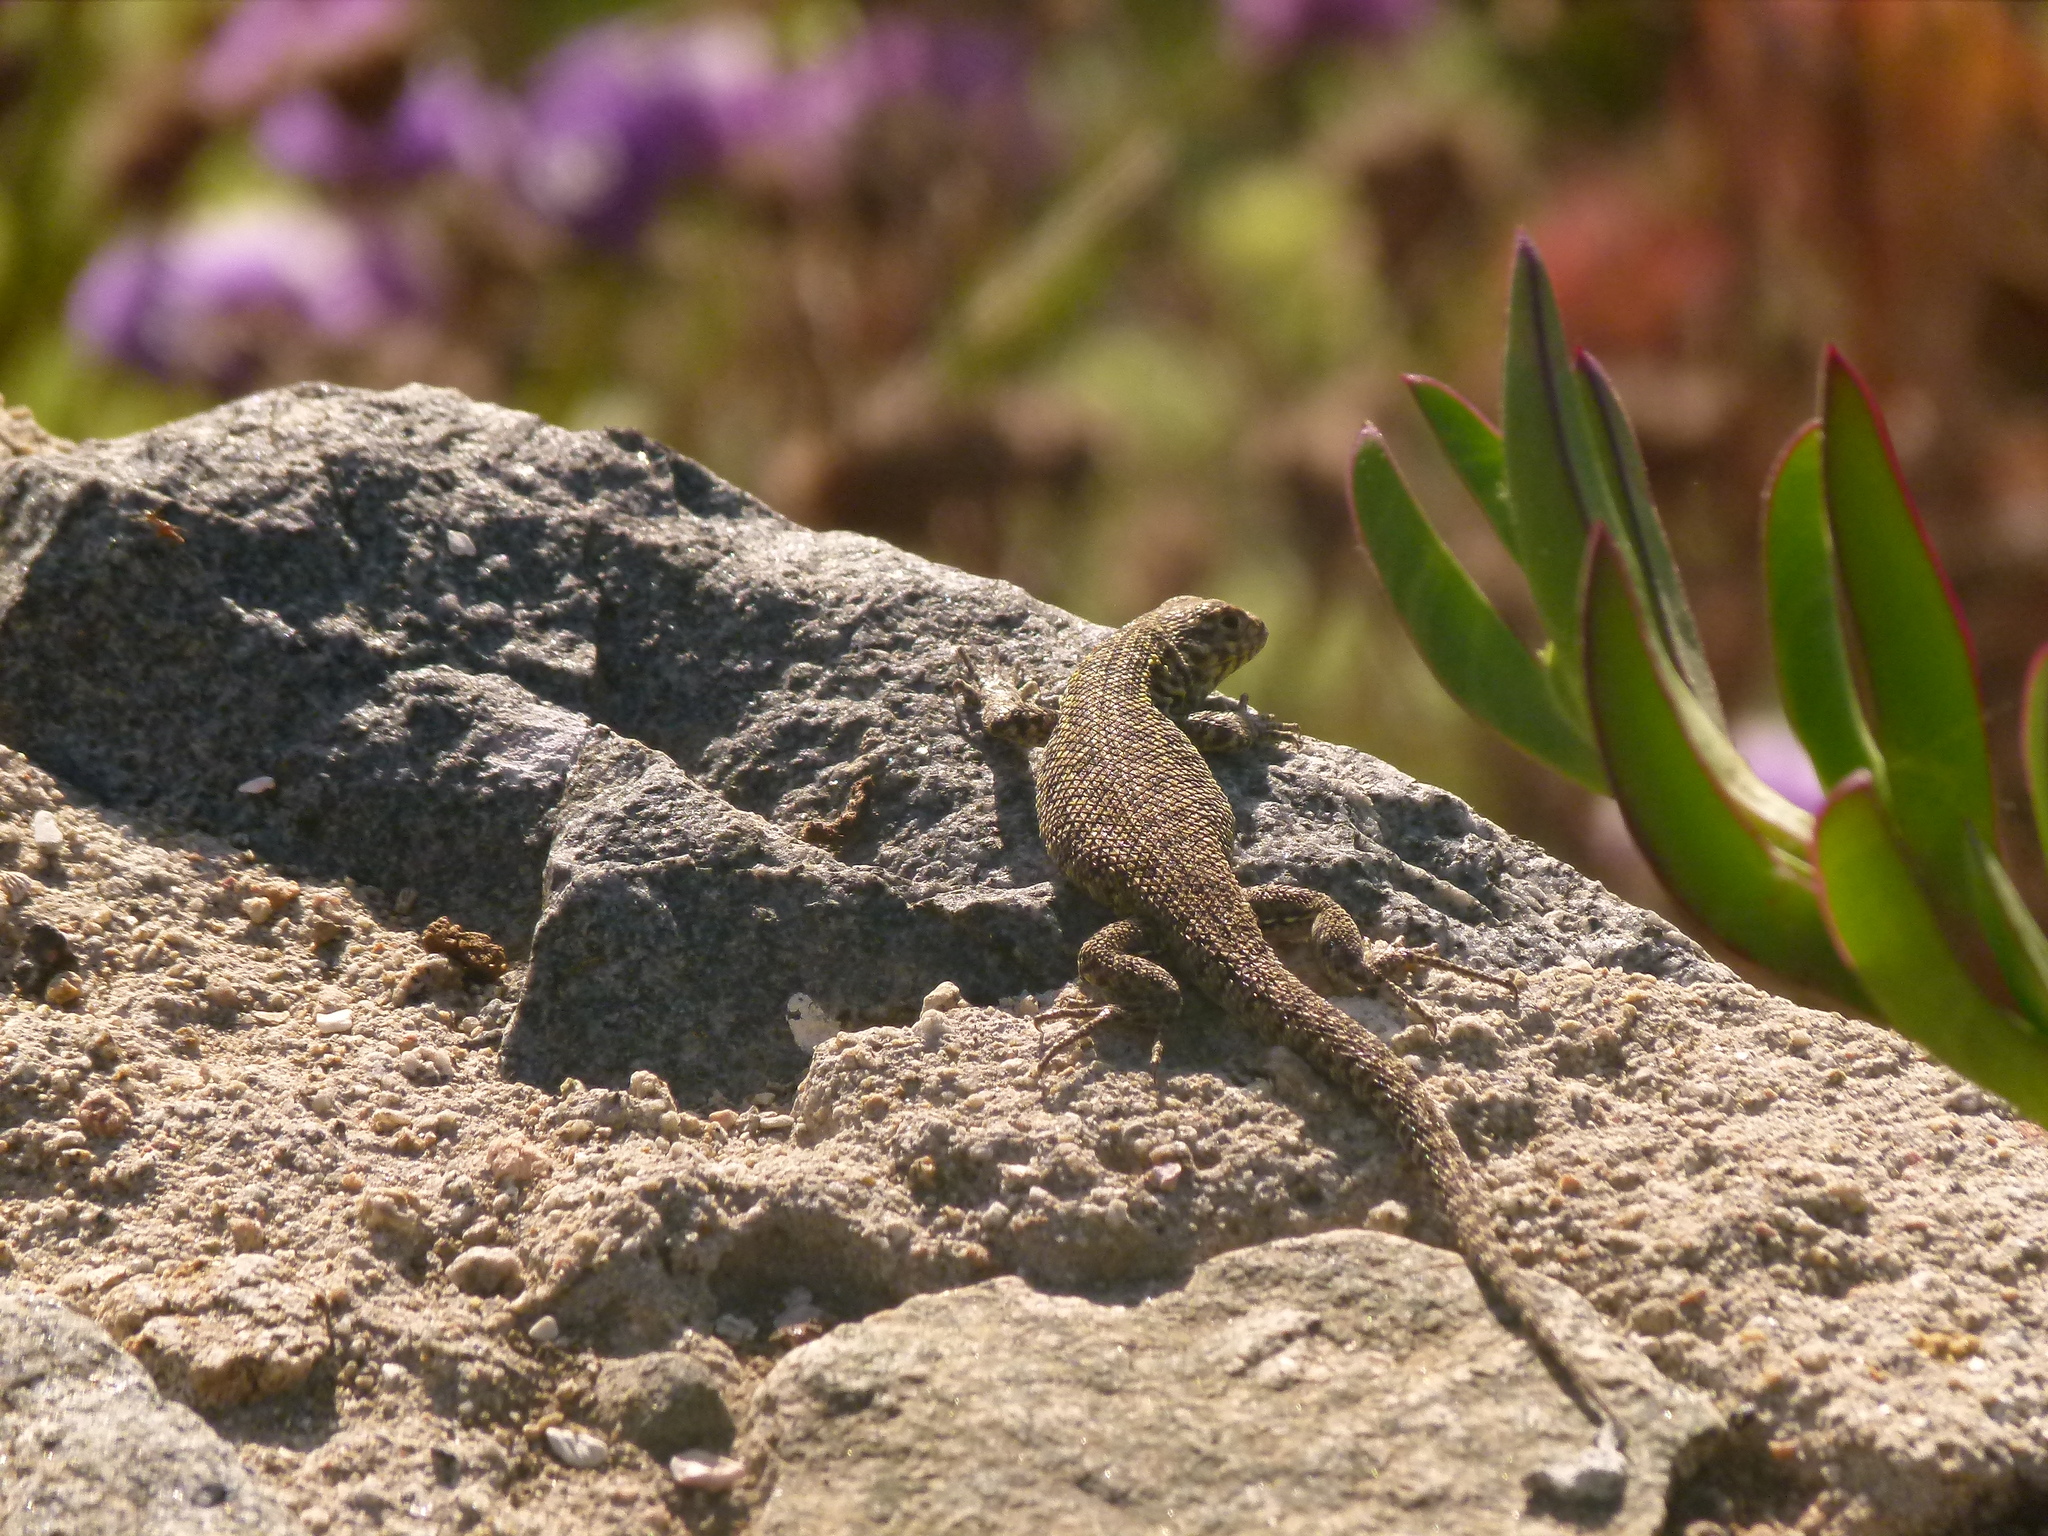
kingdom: Animalia
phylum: Chordata
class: Squamata
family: Liolaemidae
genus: Liolaemus
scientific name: Liolaemus zapallarensis
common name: Zapallaren tree iguana
